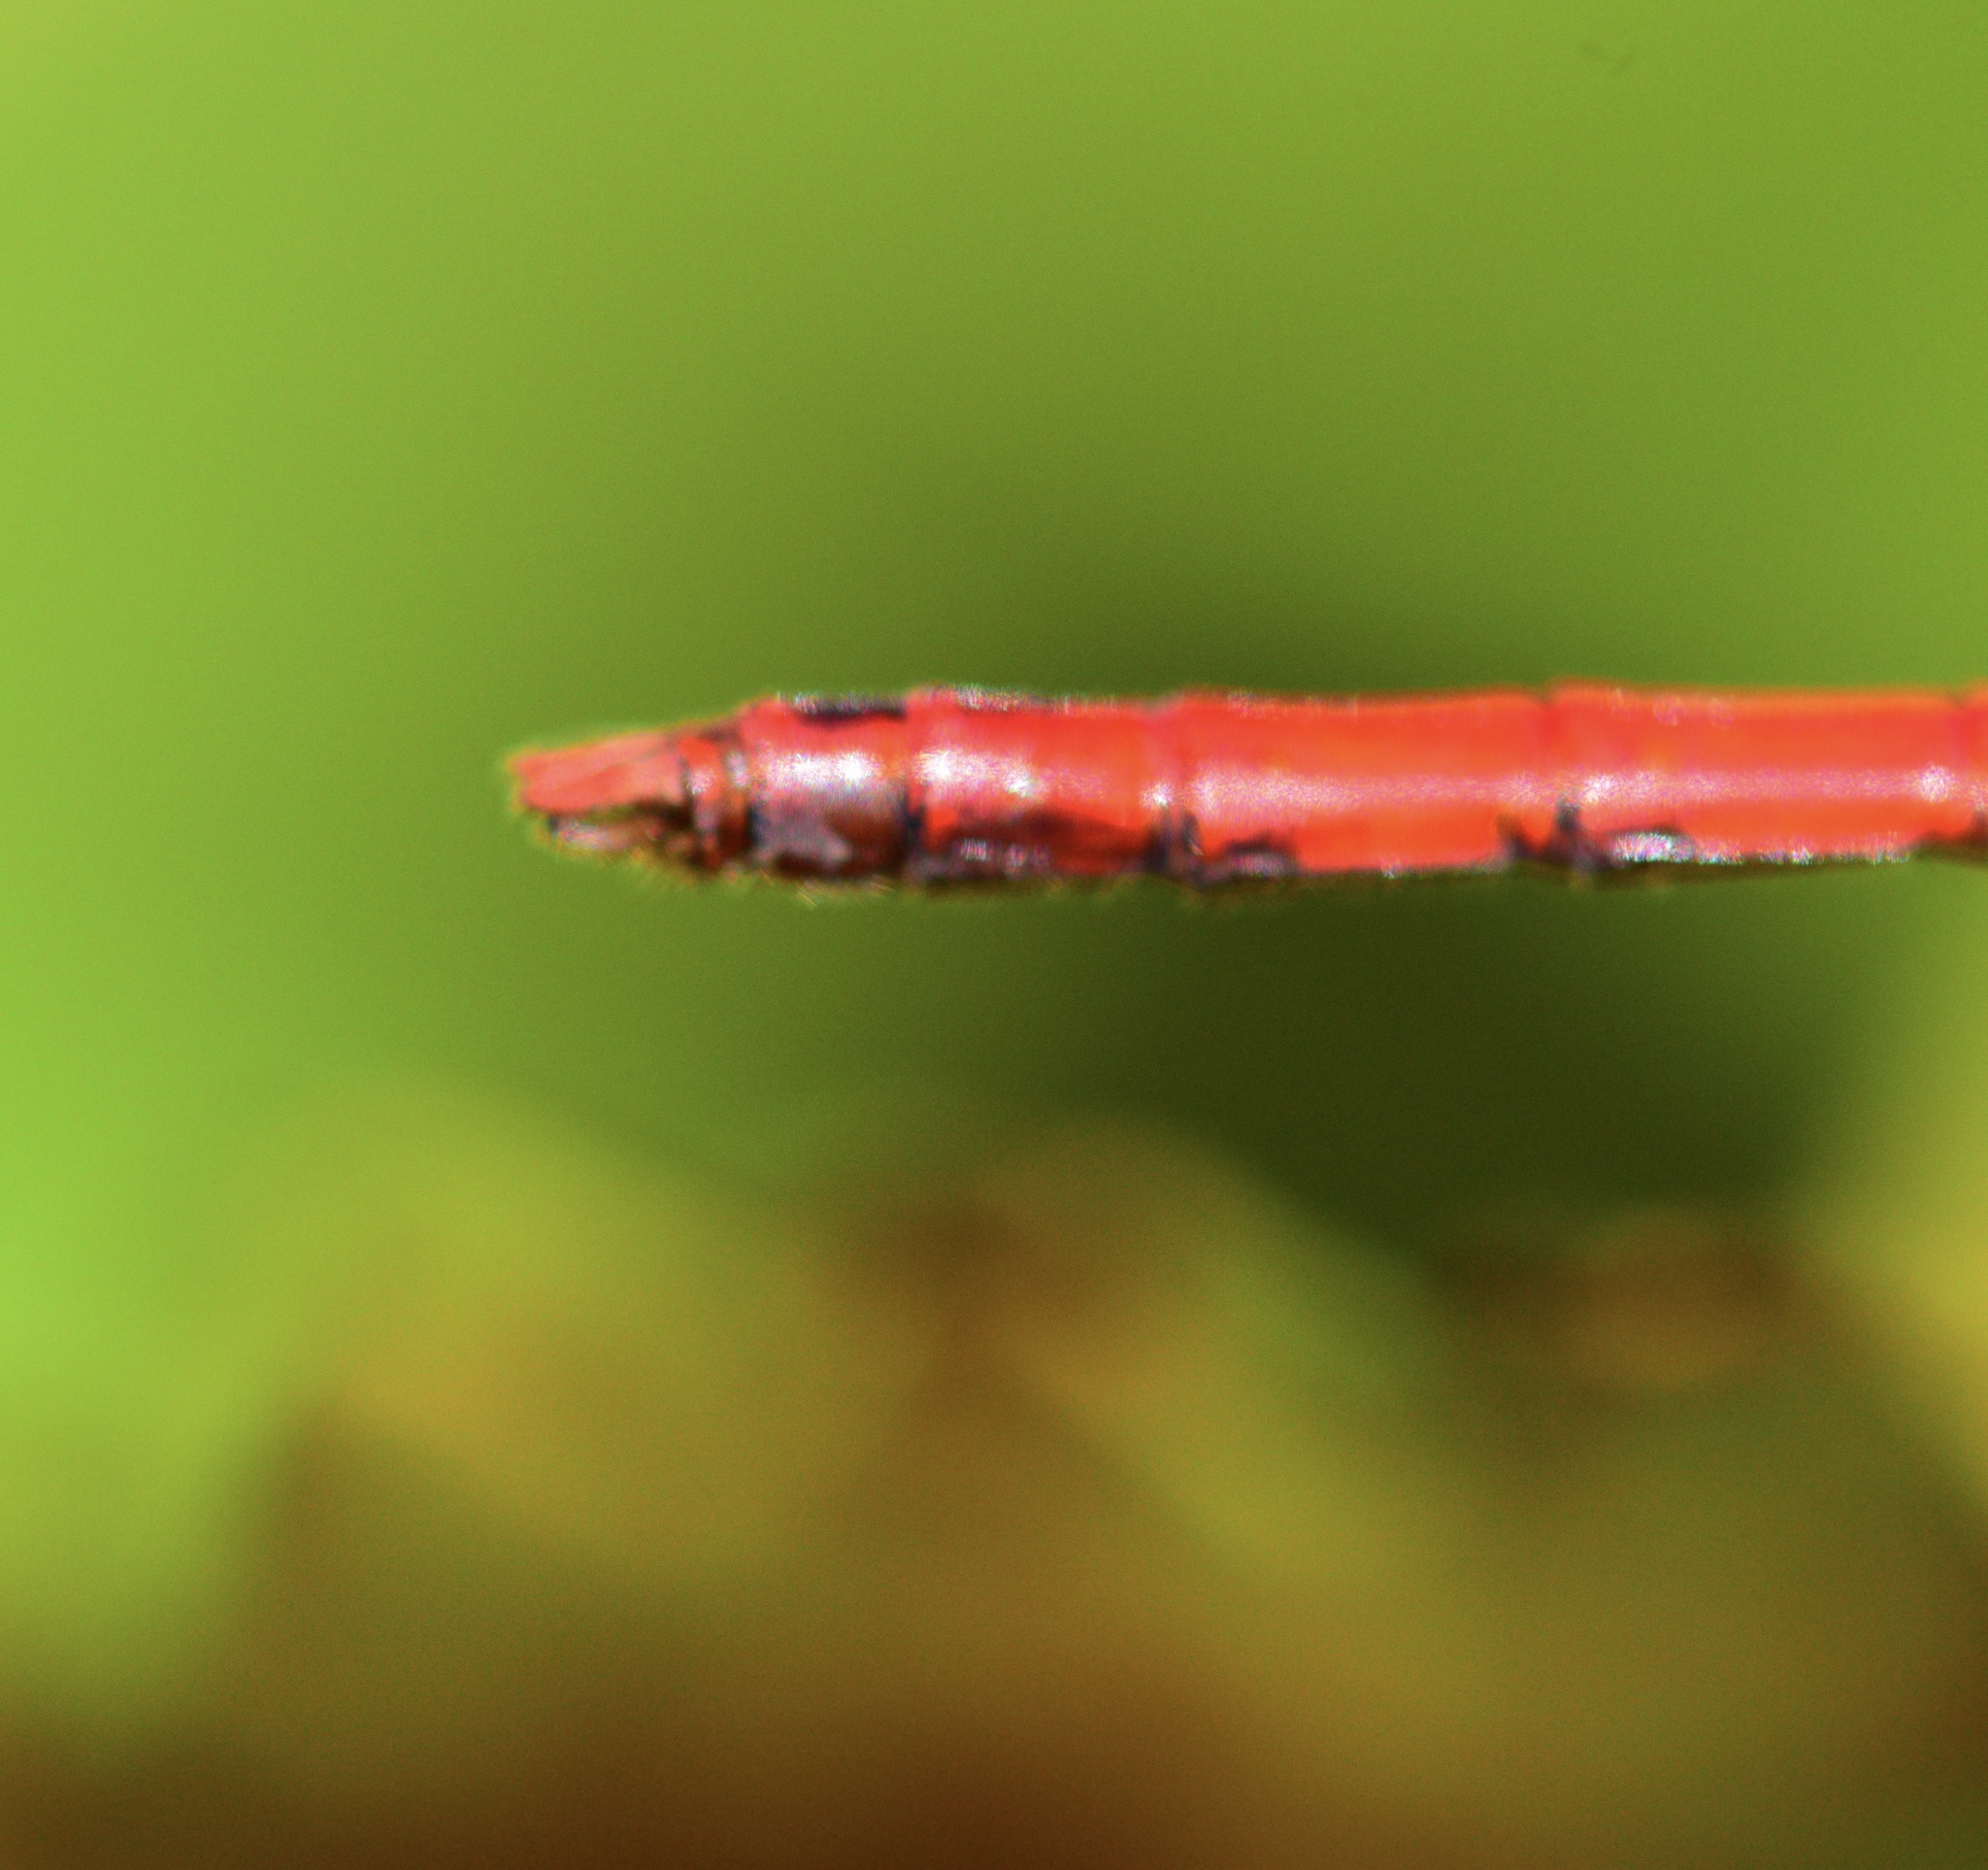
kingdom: Animalia
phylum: Arthropoda
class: Insecta
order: Odonata
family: Libellulidae
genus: Sympetrum
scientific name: Sympetrum vicinum
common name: Autumn meadowhawk
